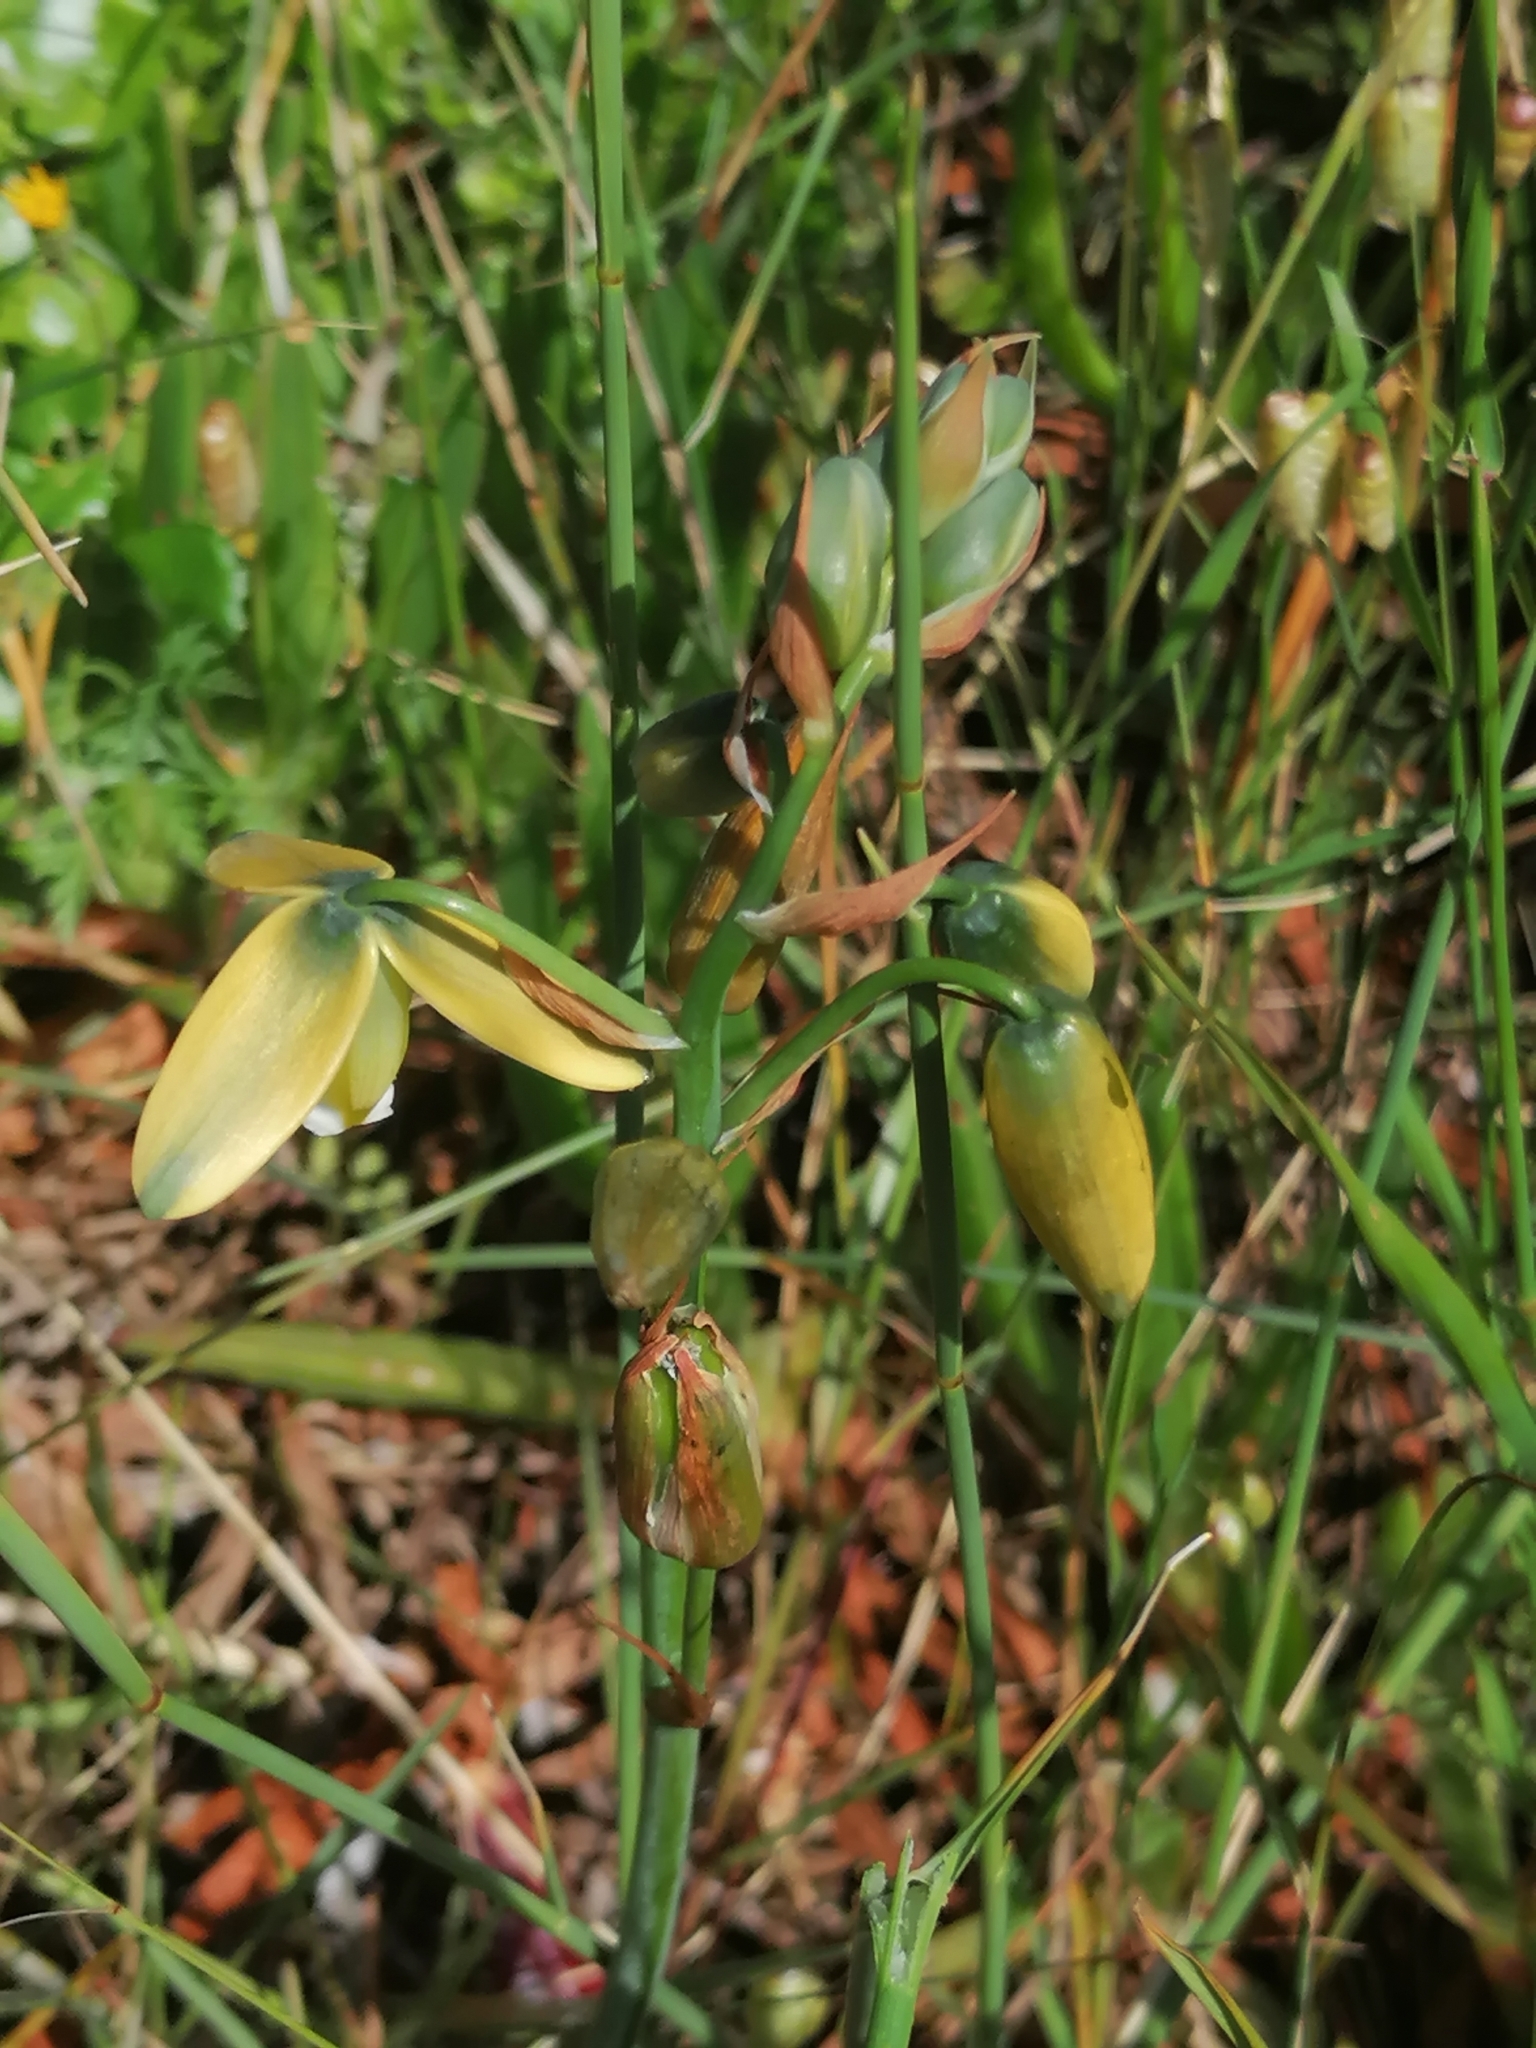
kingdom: Plantae
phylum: Tracheophyta
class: Liliopsida
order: Asparagales
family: Asparagaceae
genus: Albuca
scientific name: Albuca cooperi
